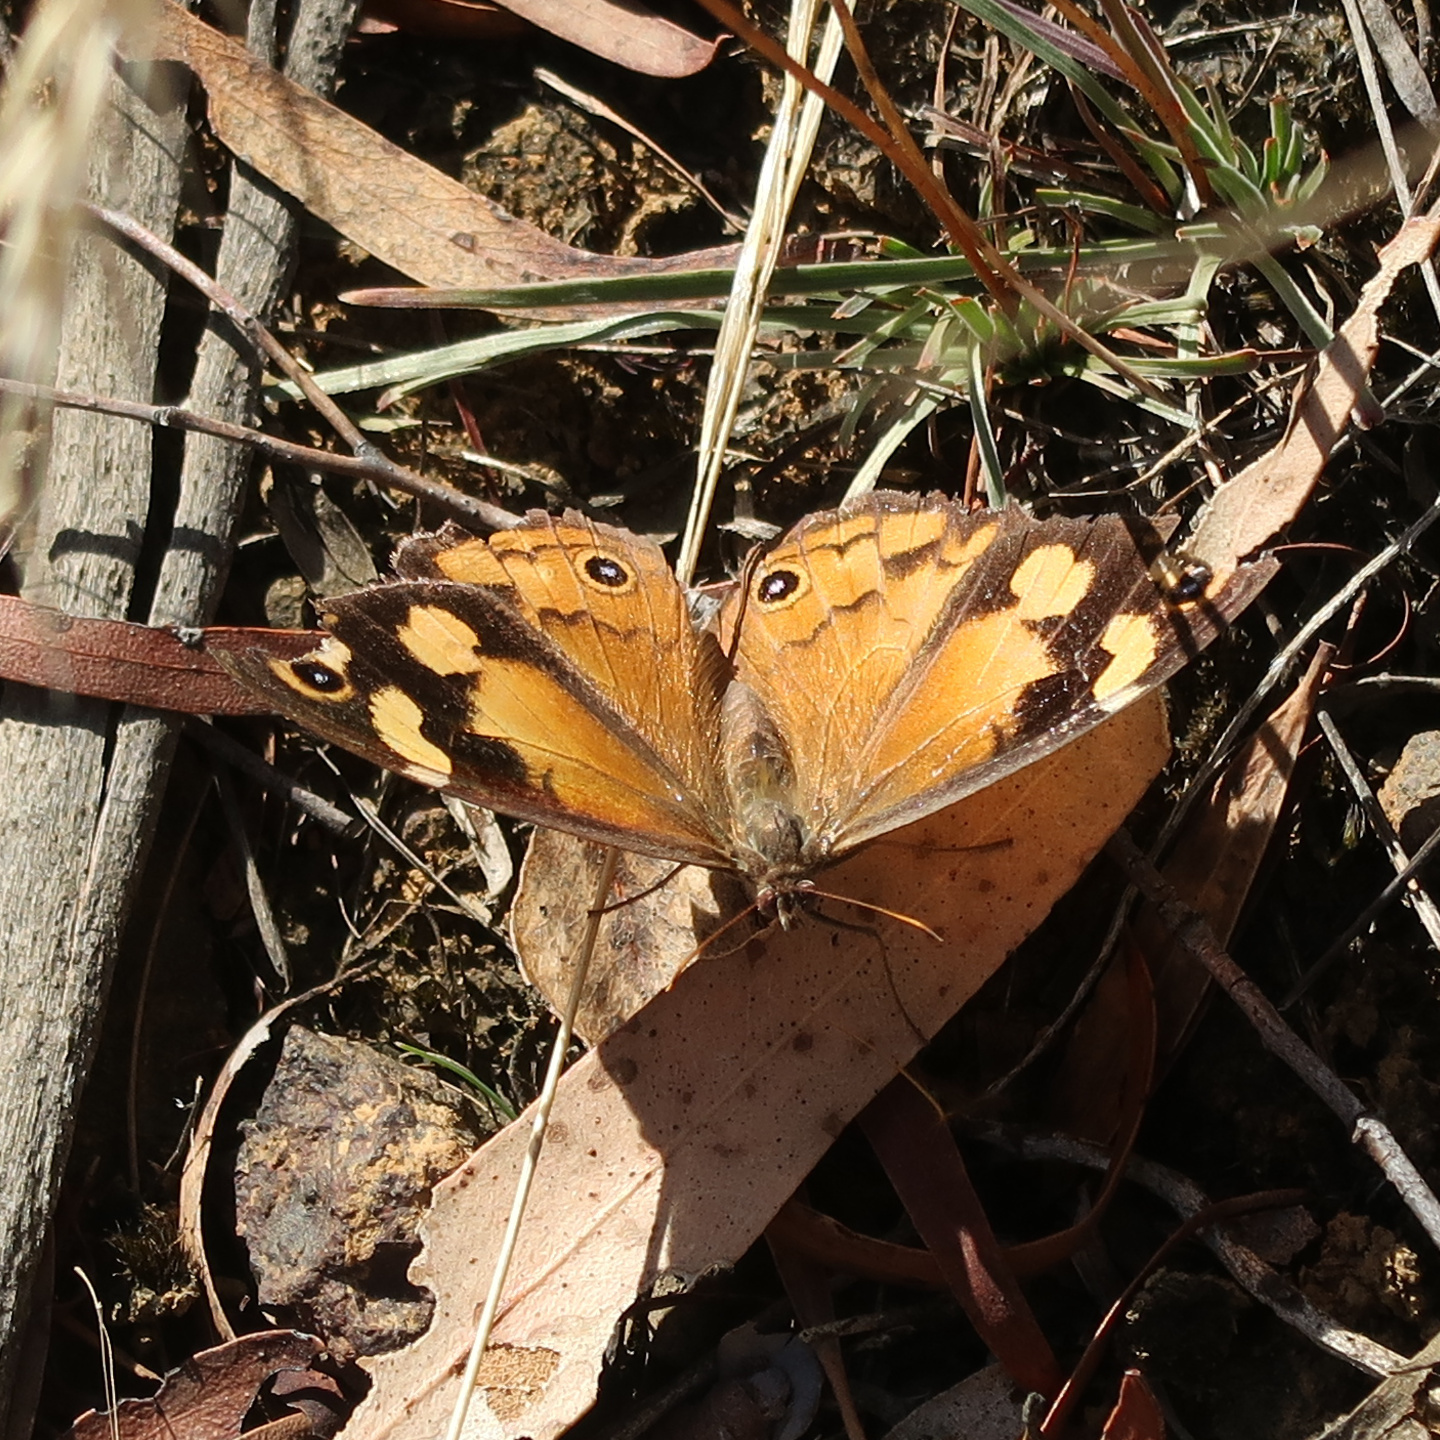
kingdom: Animalia
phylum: Arthropoda
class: Insecta
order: Lepidoptera
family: Nymphalidae
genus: Heteronympha
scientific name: Heteronympha merope
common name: Common brown
